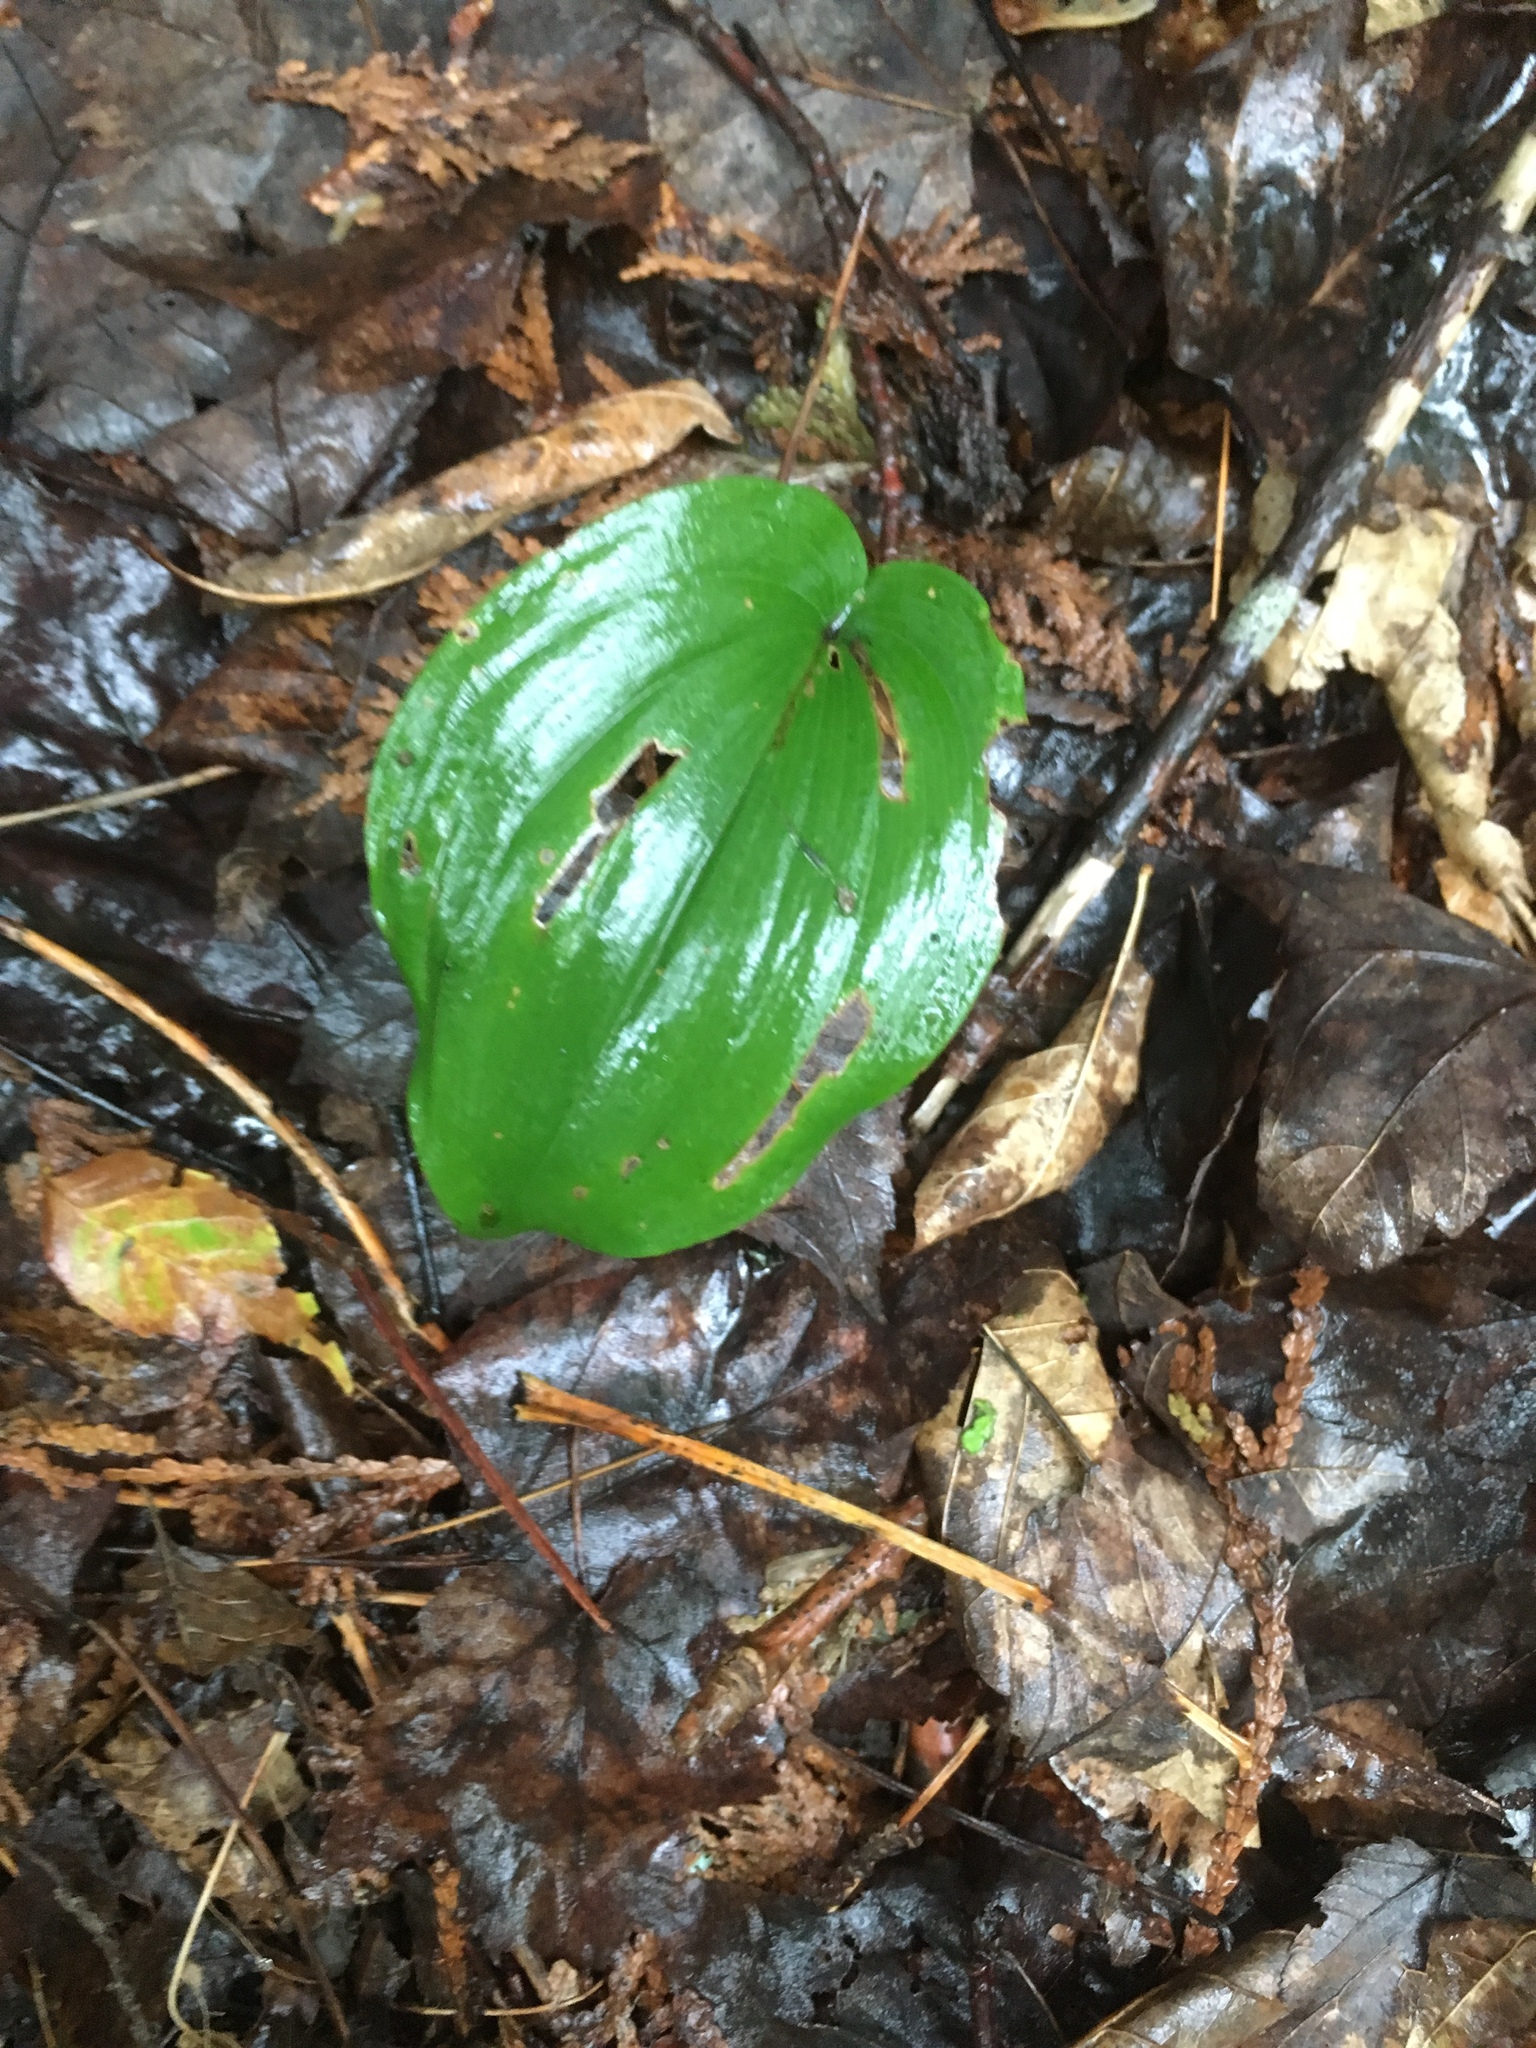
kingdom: Plantae
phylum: Tracheophyta
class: Liliopsida
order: Asparagales
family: Asparagaceae
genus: Maianthemum
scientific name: Maianthemum canadense
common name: False lily-of-the-valley
